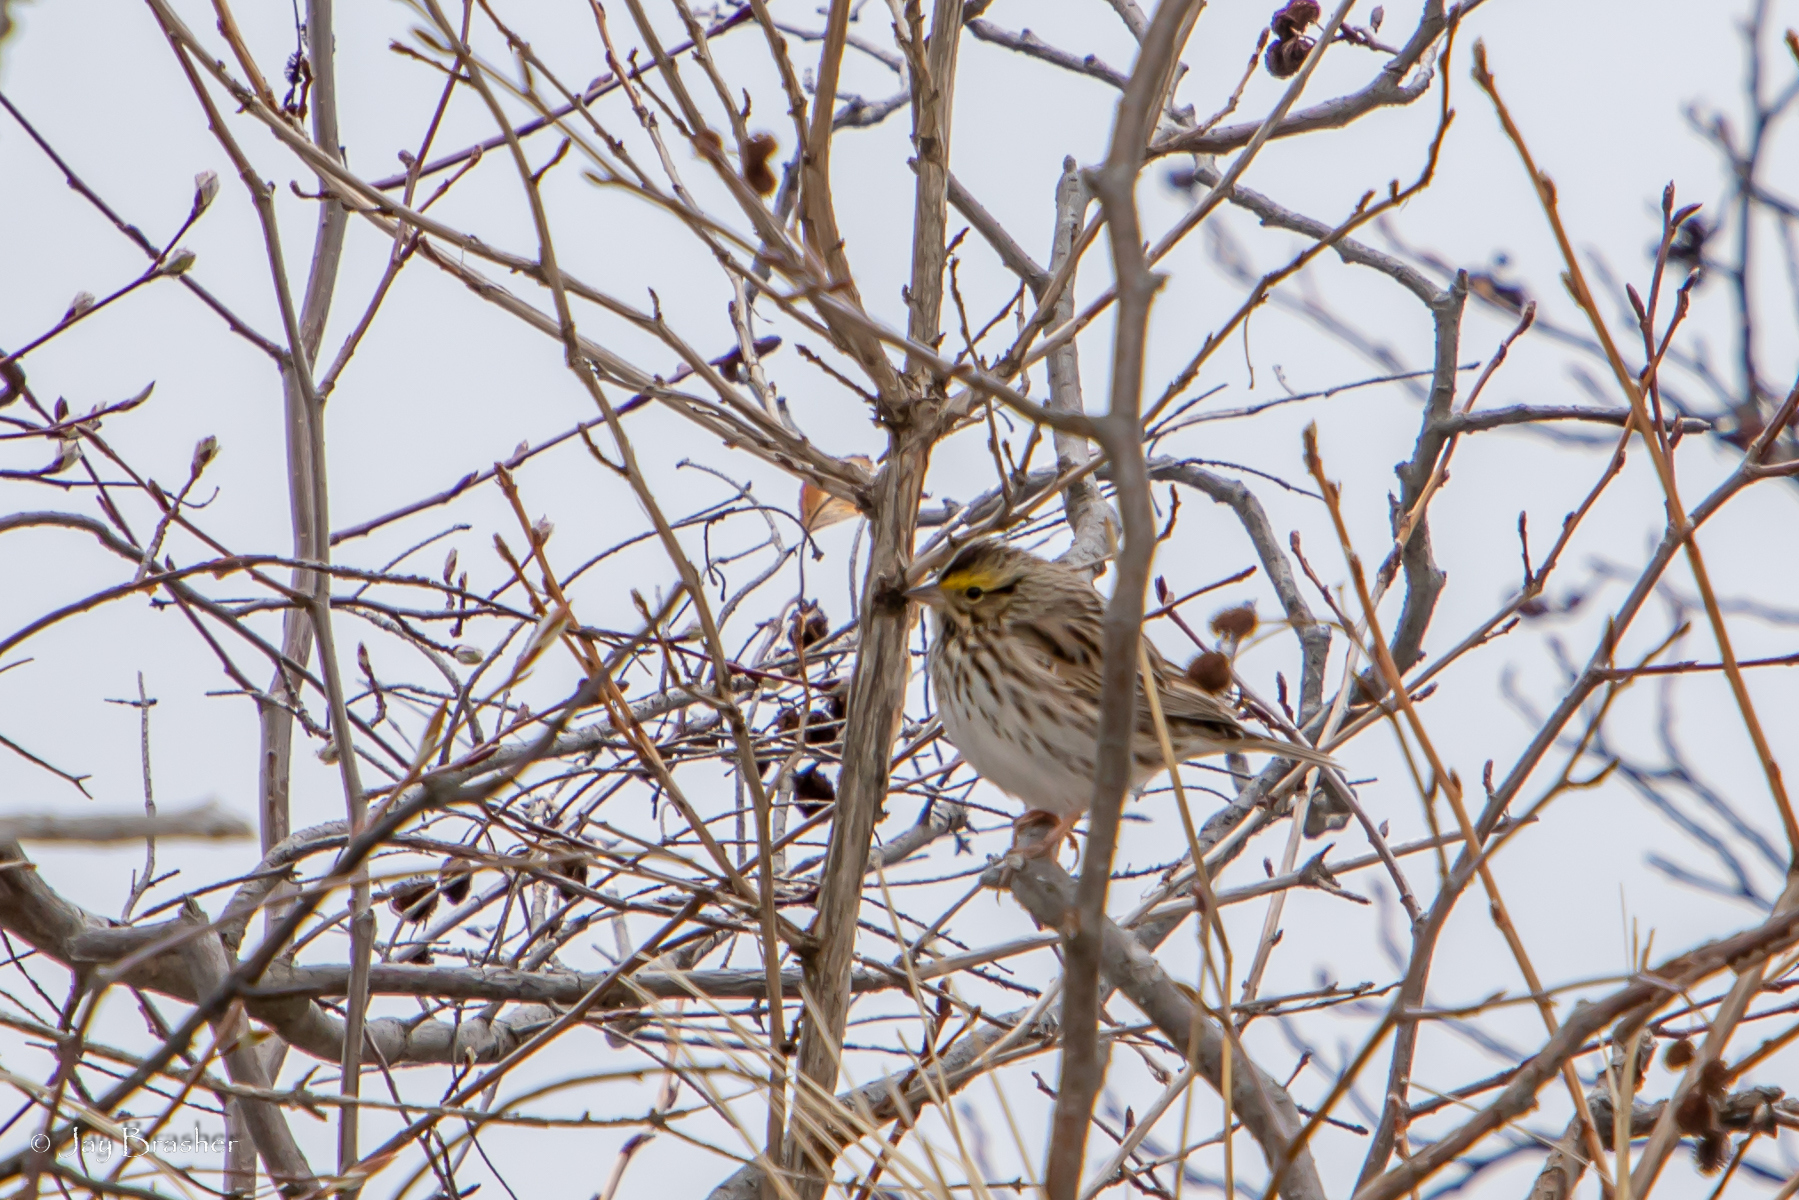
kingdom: Animalia
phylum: Chordata
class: Aves
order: Passeriformes
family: Passerellidae
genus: Passerculus
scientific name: Passerculus sandwichensis
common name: Savannah sparrow
